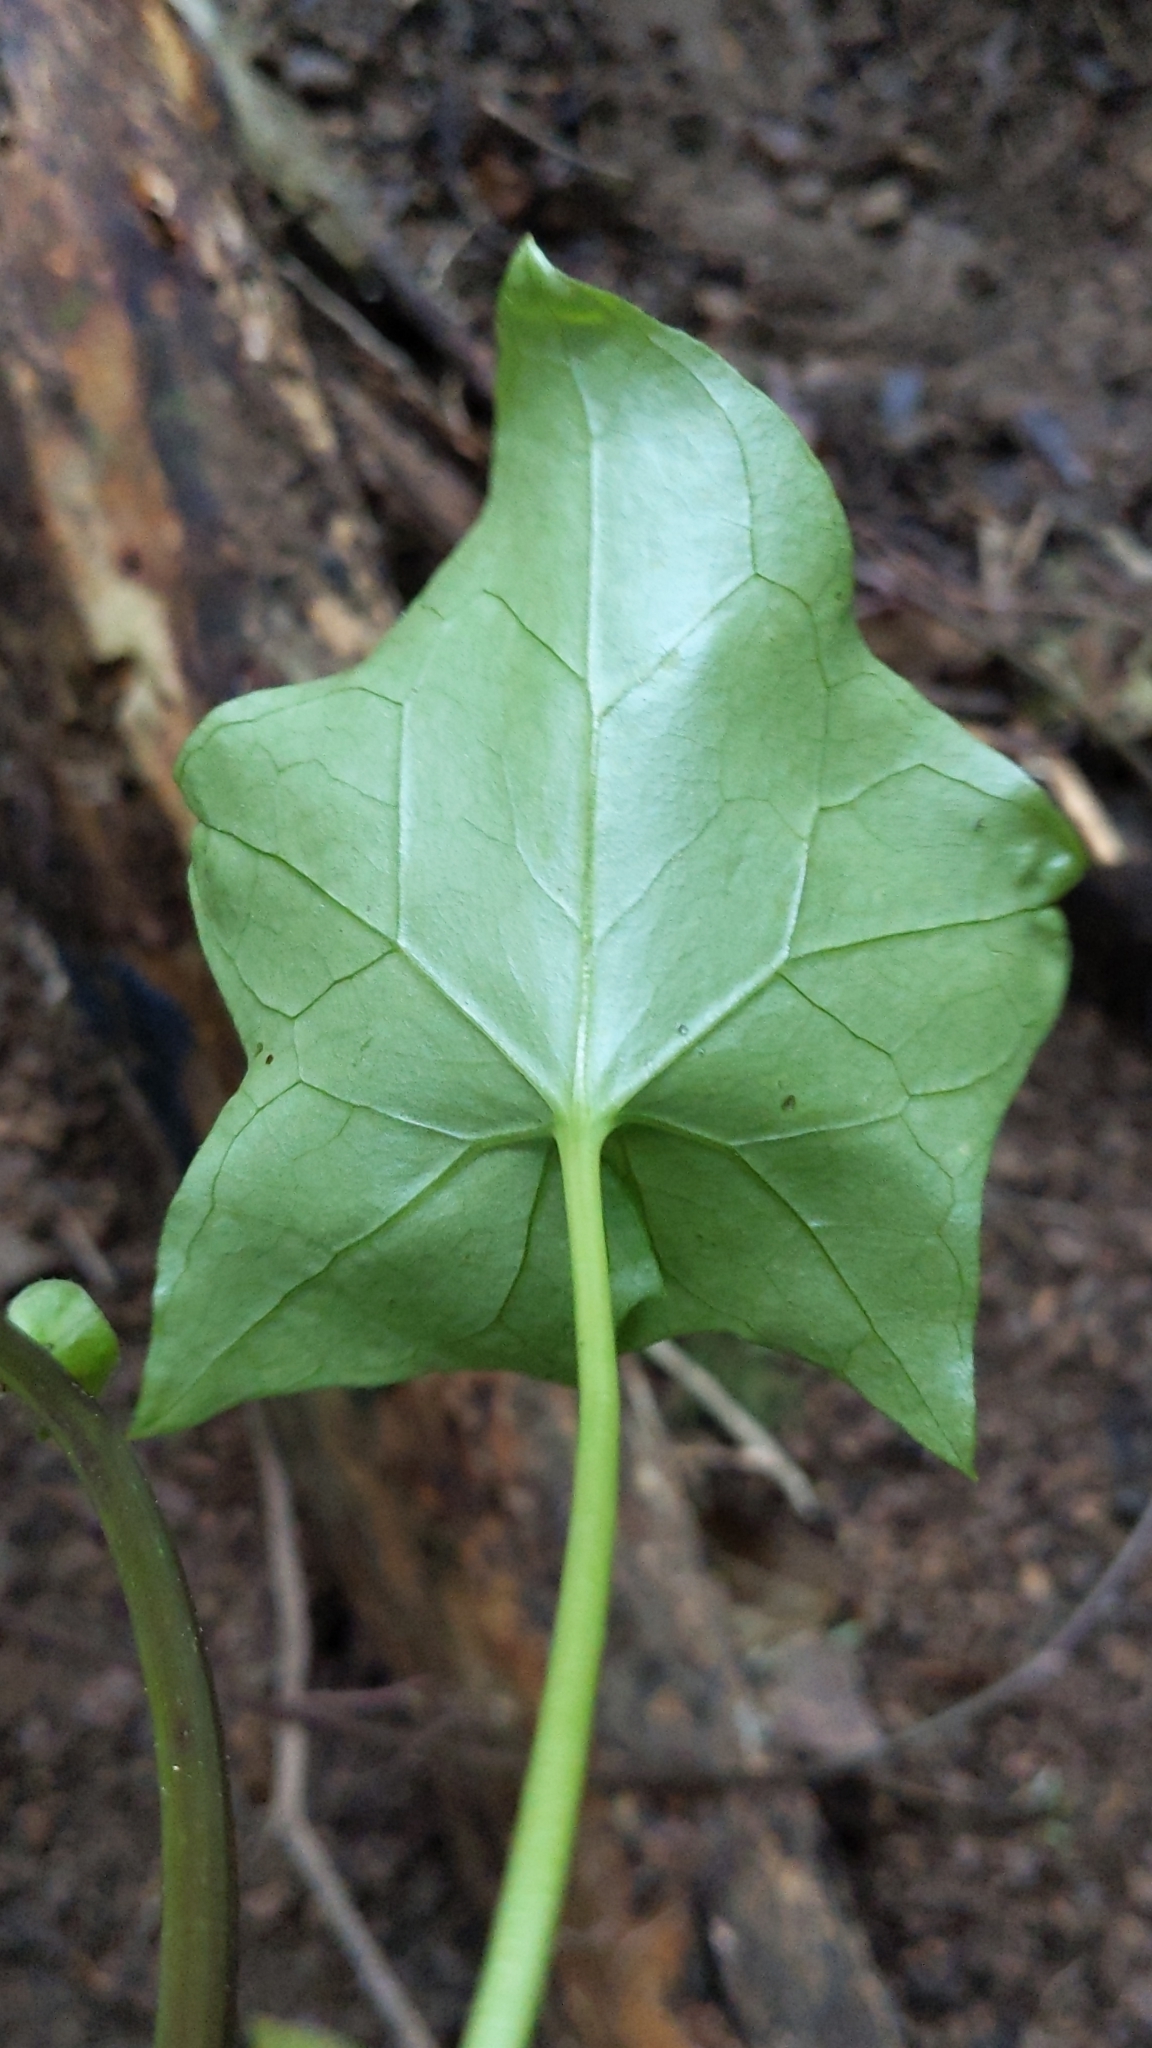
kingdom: Plantae
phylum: Tracheophyta
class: Magnoliopsida
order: Asterales
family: Asteraceae
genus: Delairea
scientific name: Delairea odorata
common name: Cape-ivy
